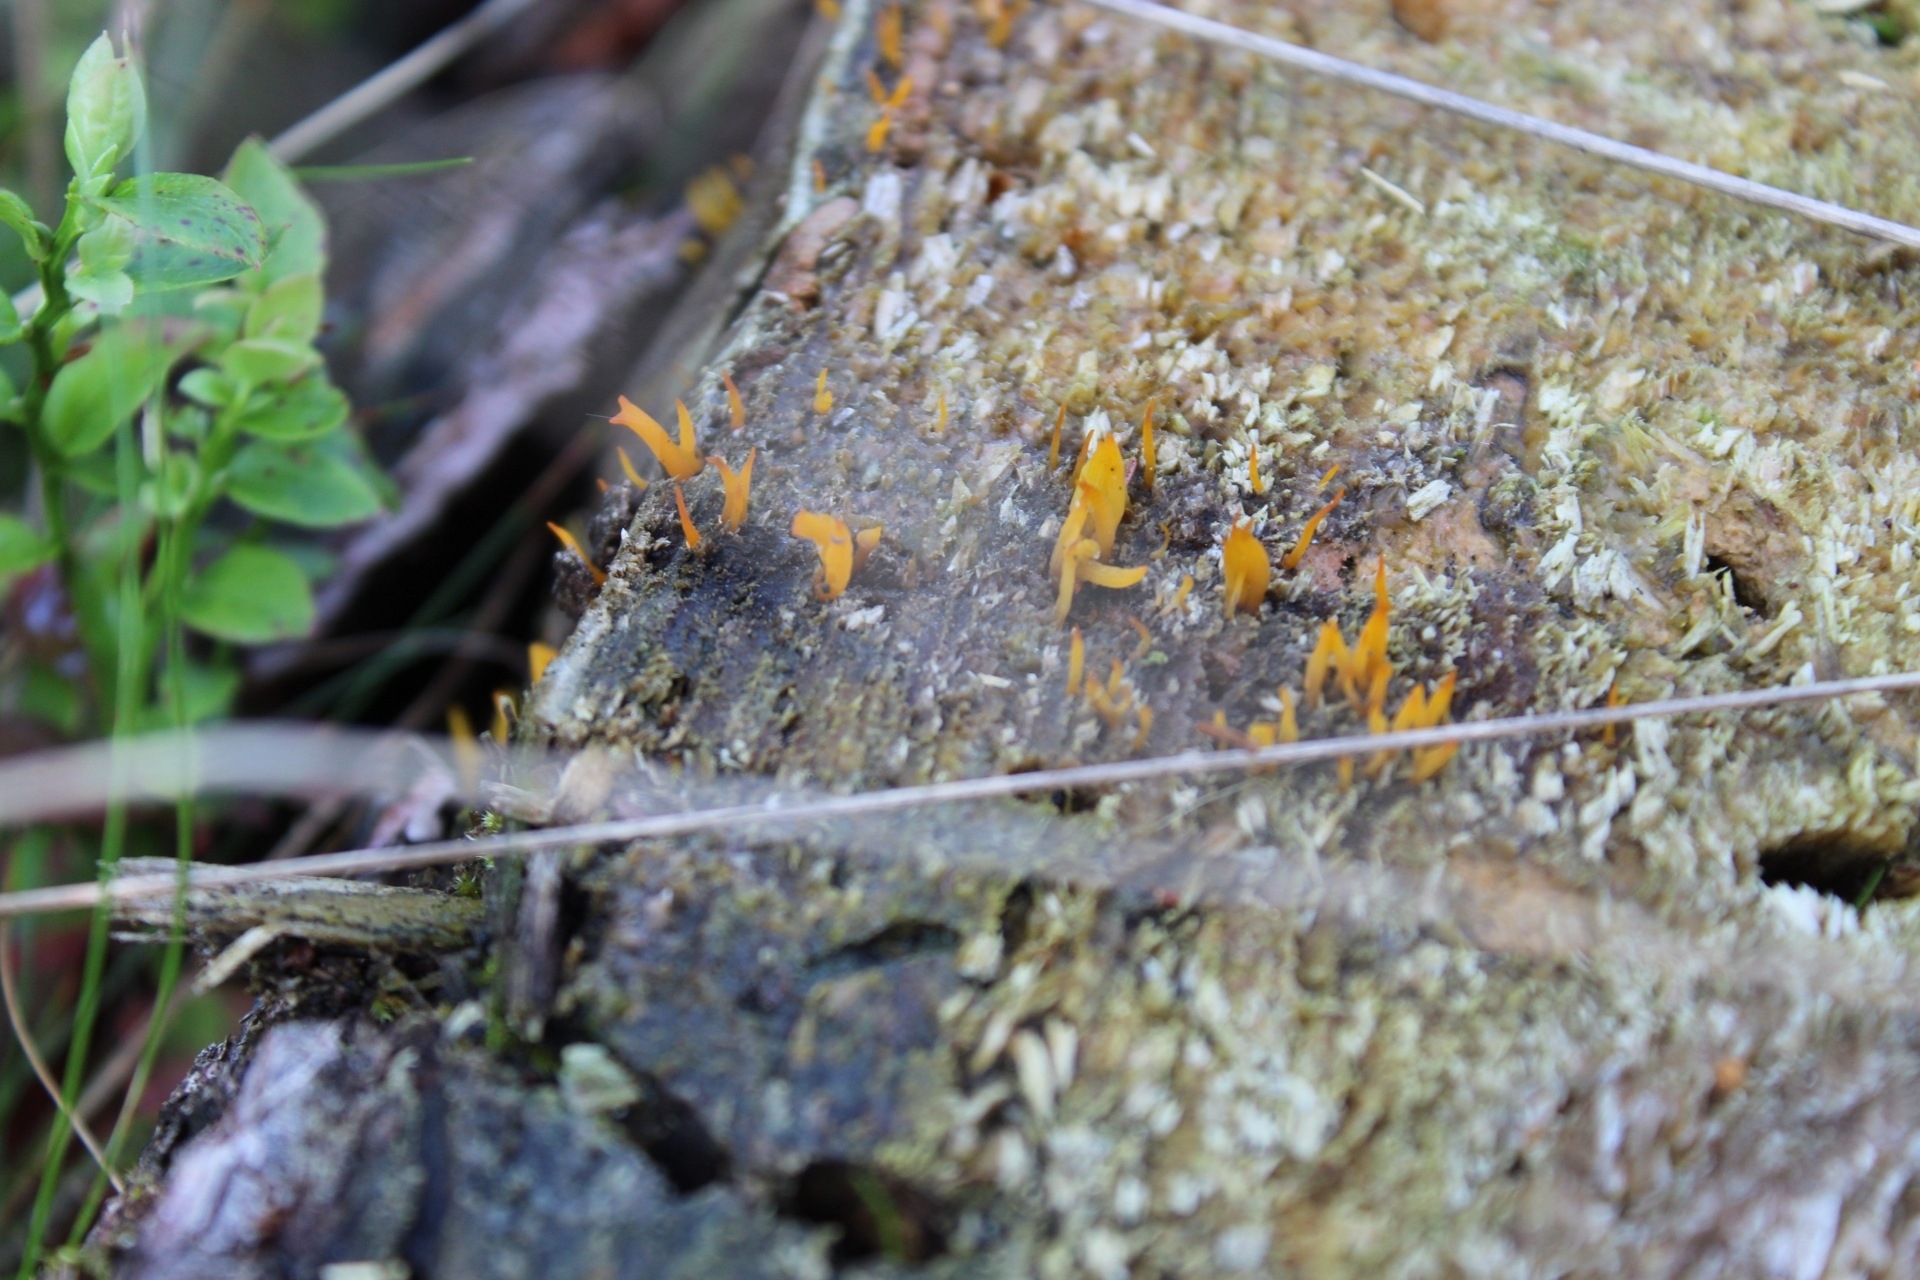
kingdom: Fungi
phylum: Basidiomycota
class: Dacrymycetes
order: Dacrymycetales
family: Dacrymycetaceae
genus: Calocera
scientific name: Calocera cornea
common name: Small stagshorn
